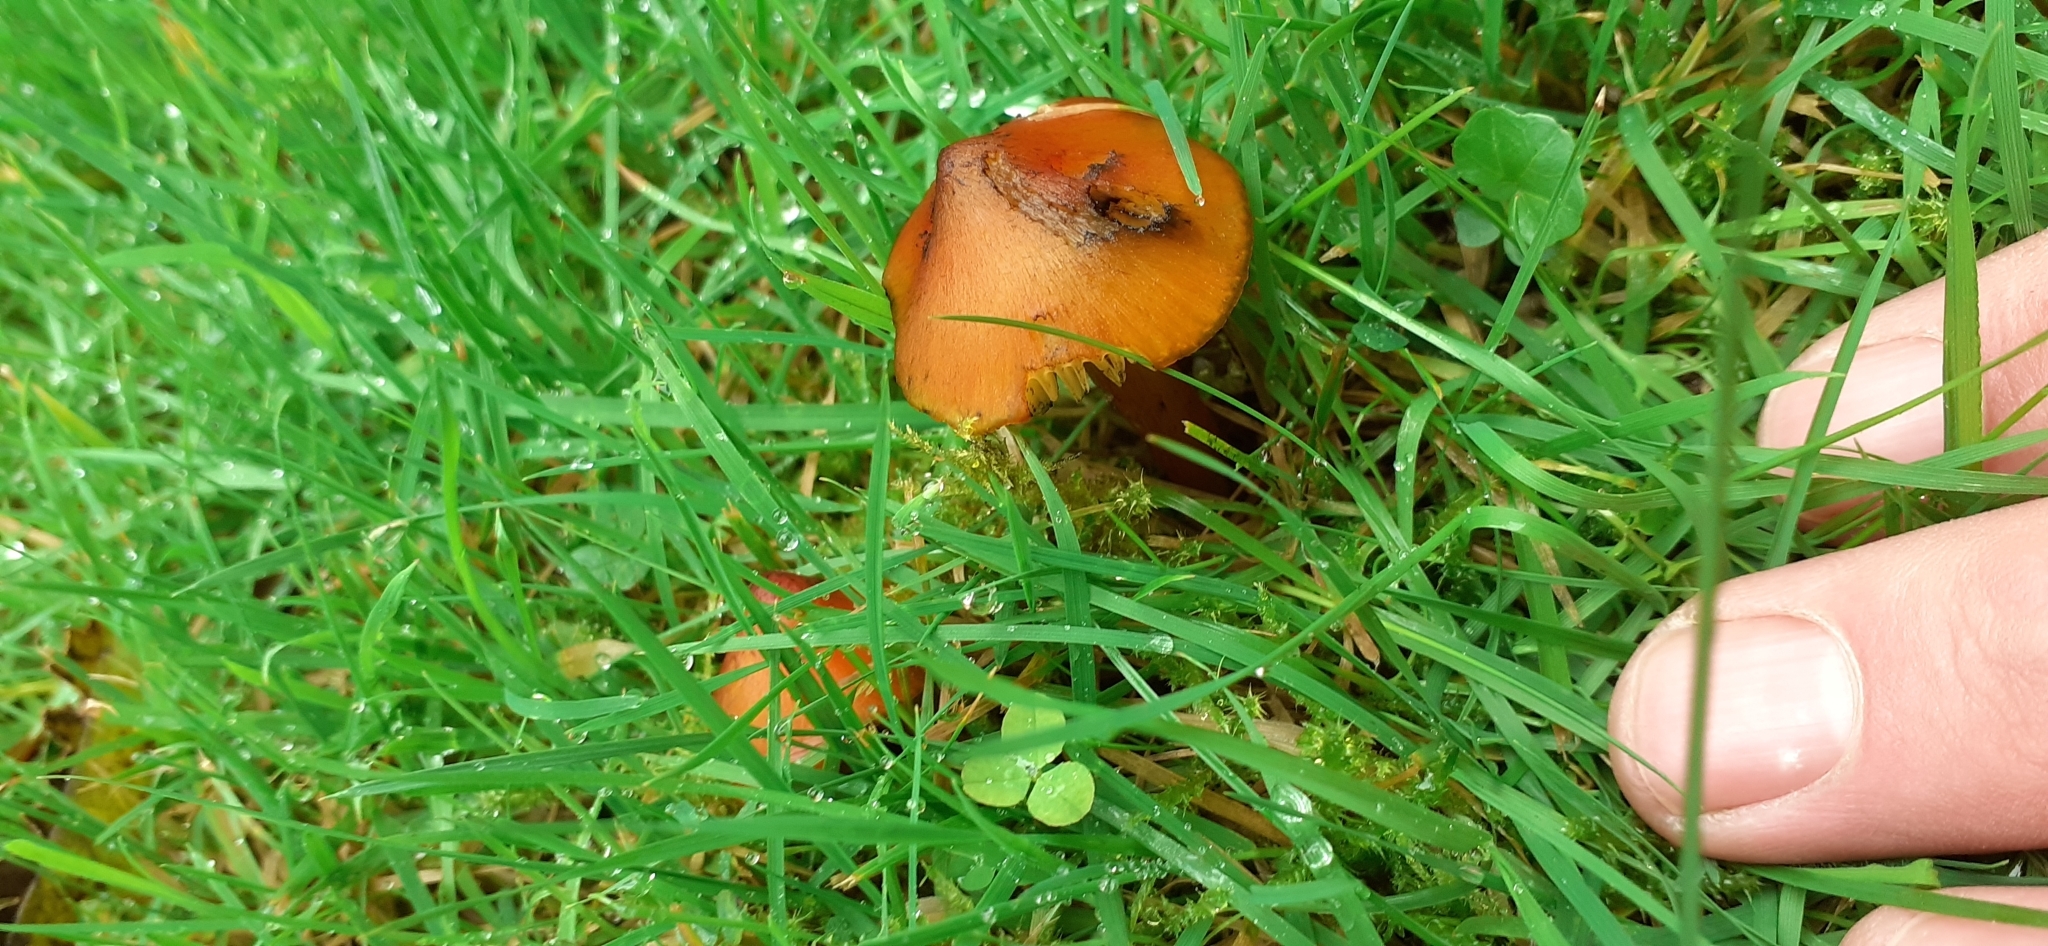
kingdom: Fungi
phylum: Basidiomycota
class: Agaricomycetes
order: Agaricales
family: Hygrophoraceae
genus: Hygrocybe
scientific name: Hygrocybe conica
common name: Blackening wax-cap
